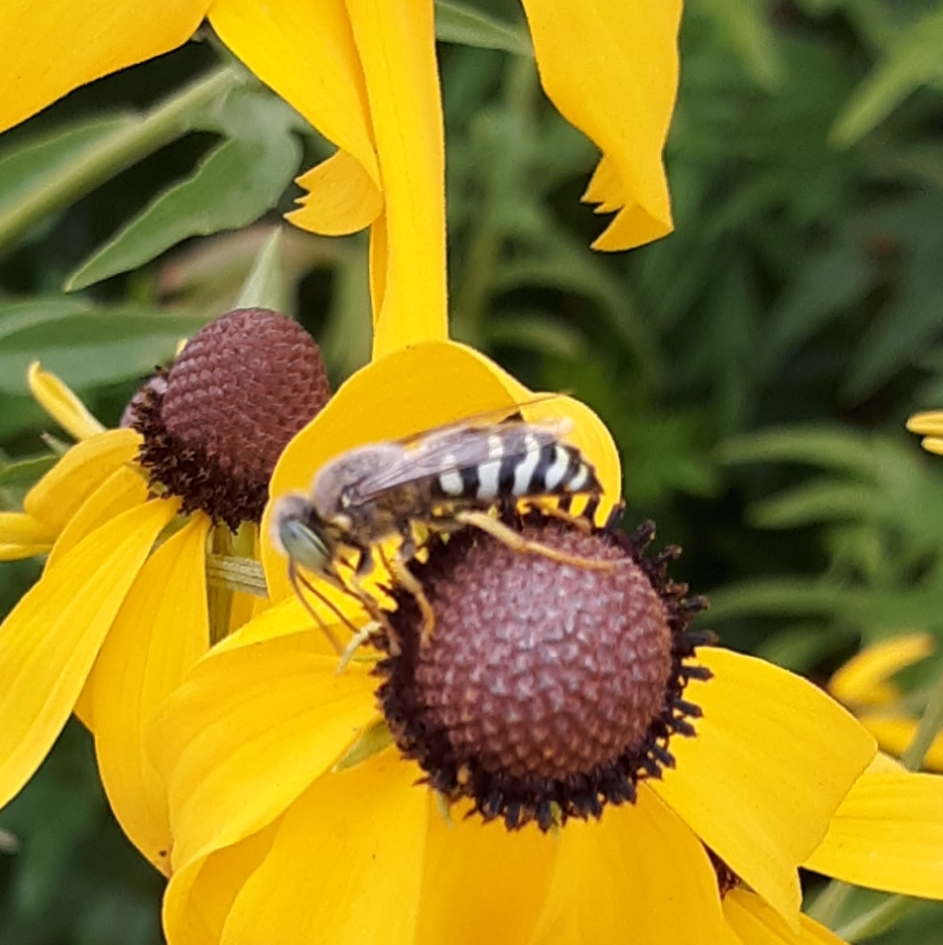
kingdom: Animalia
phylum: Arthropoda
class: Insecta
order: Hymenoptera
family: Crabronidae
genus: Bembix
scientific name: Bembix americana
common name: American sand wasp
